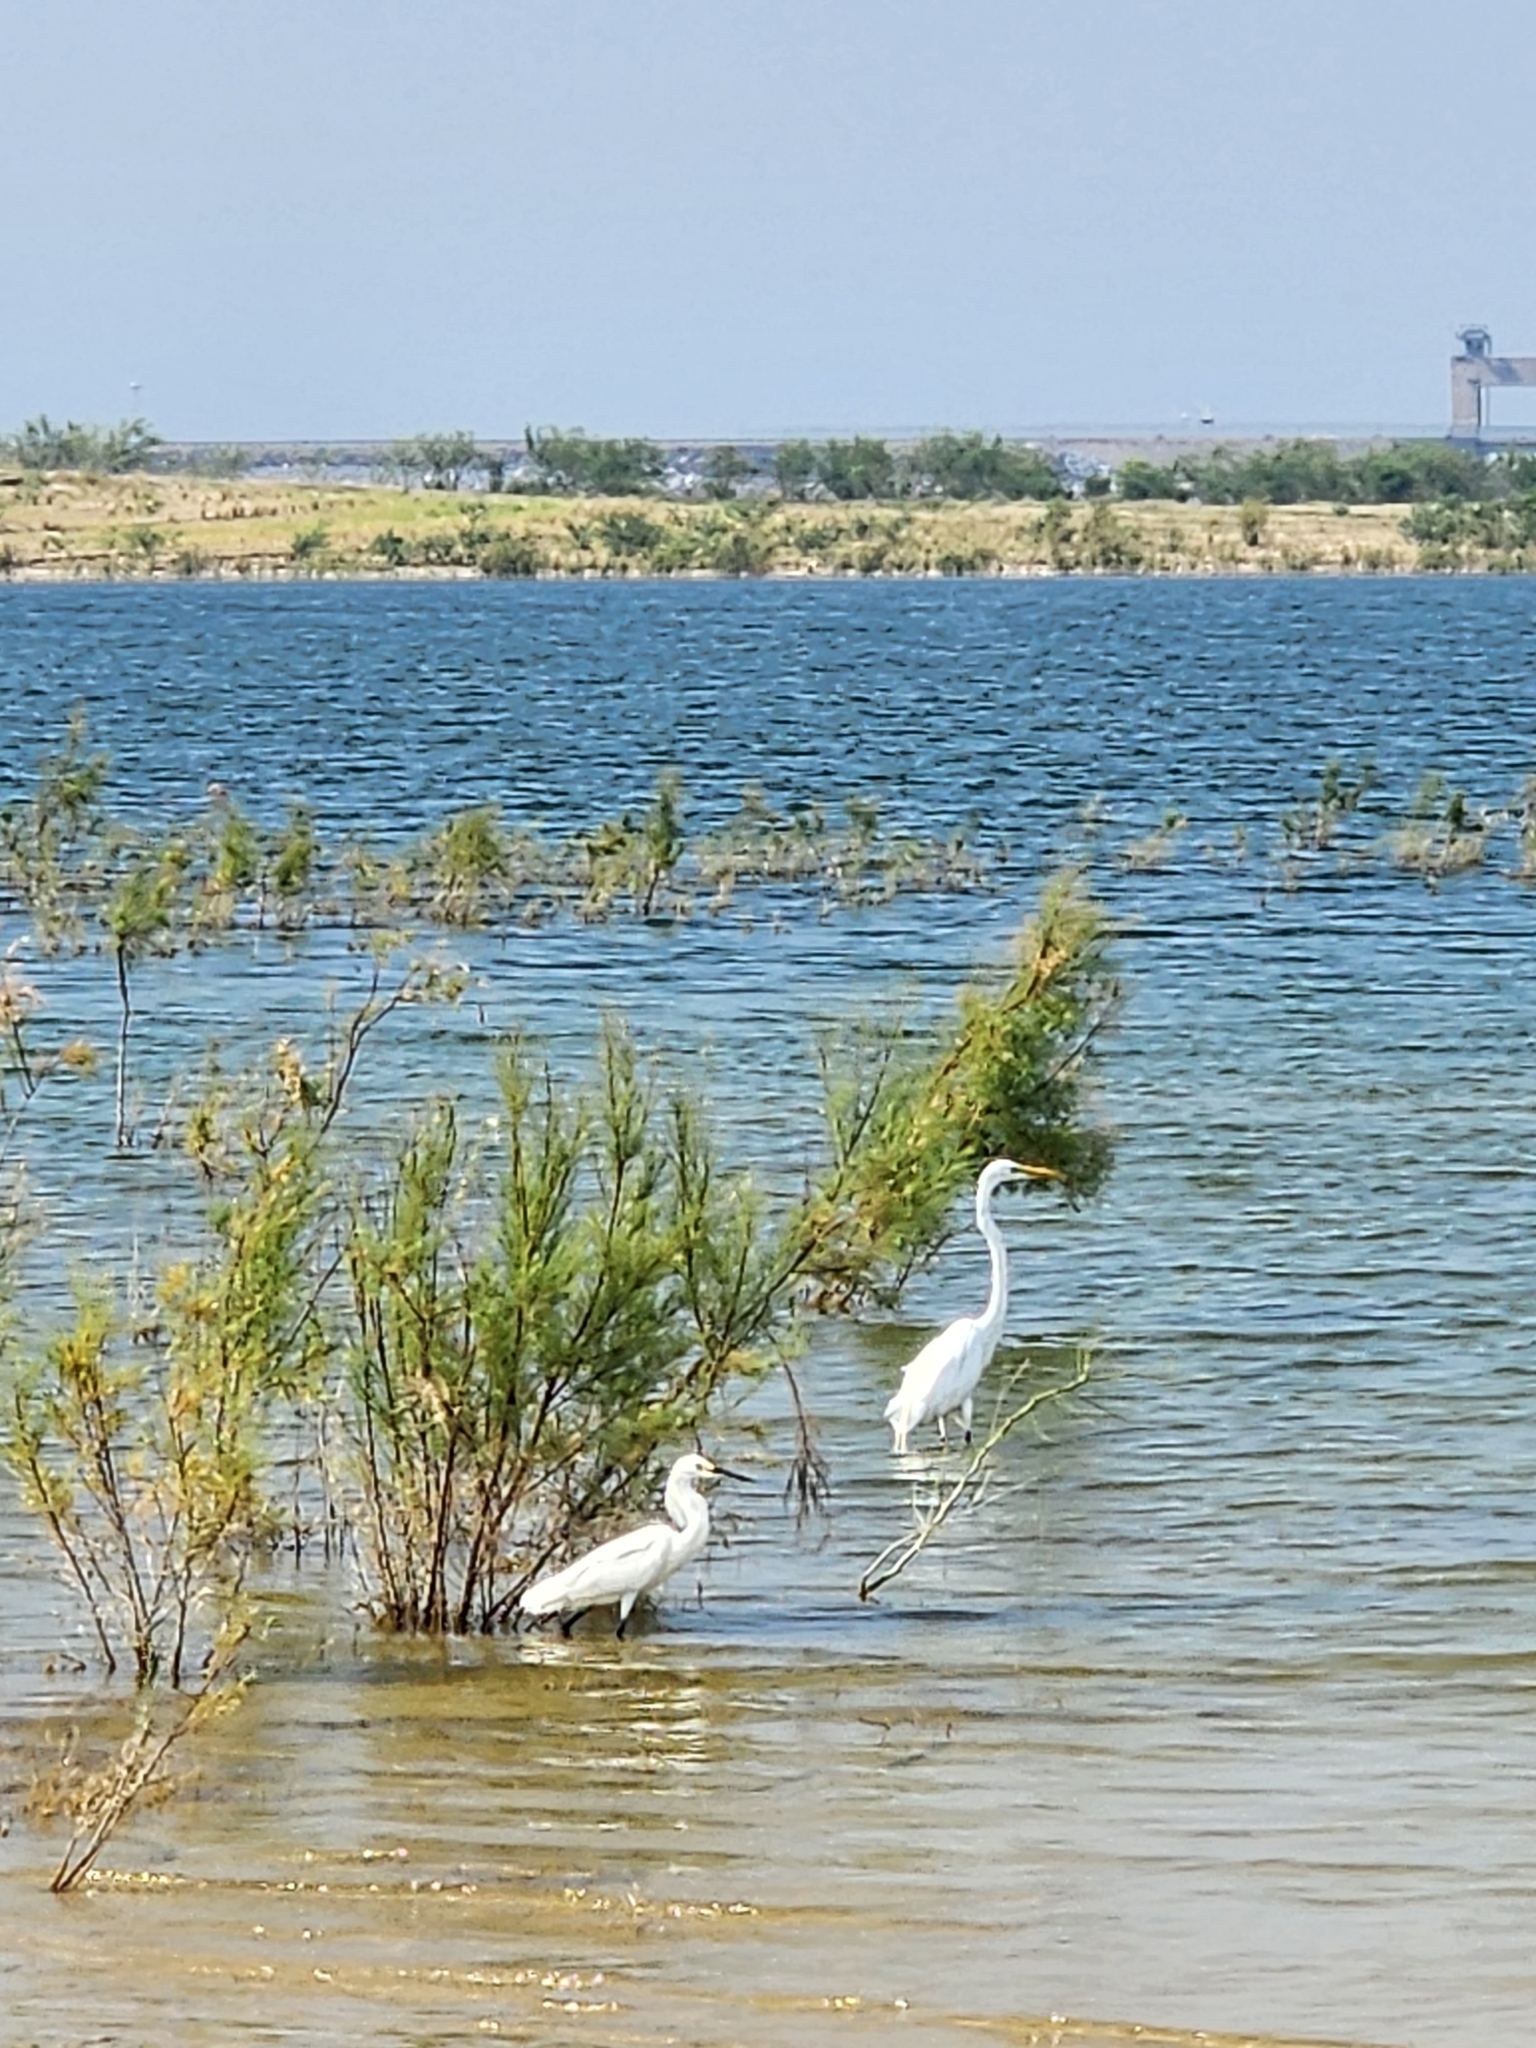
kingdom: Animalia
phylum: Chordata
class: Aves
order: Pelecaniformes
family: Ardeidae
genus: Ardea
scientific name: Ardea alba
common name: Great egret
